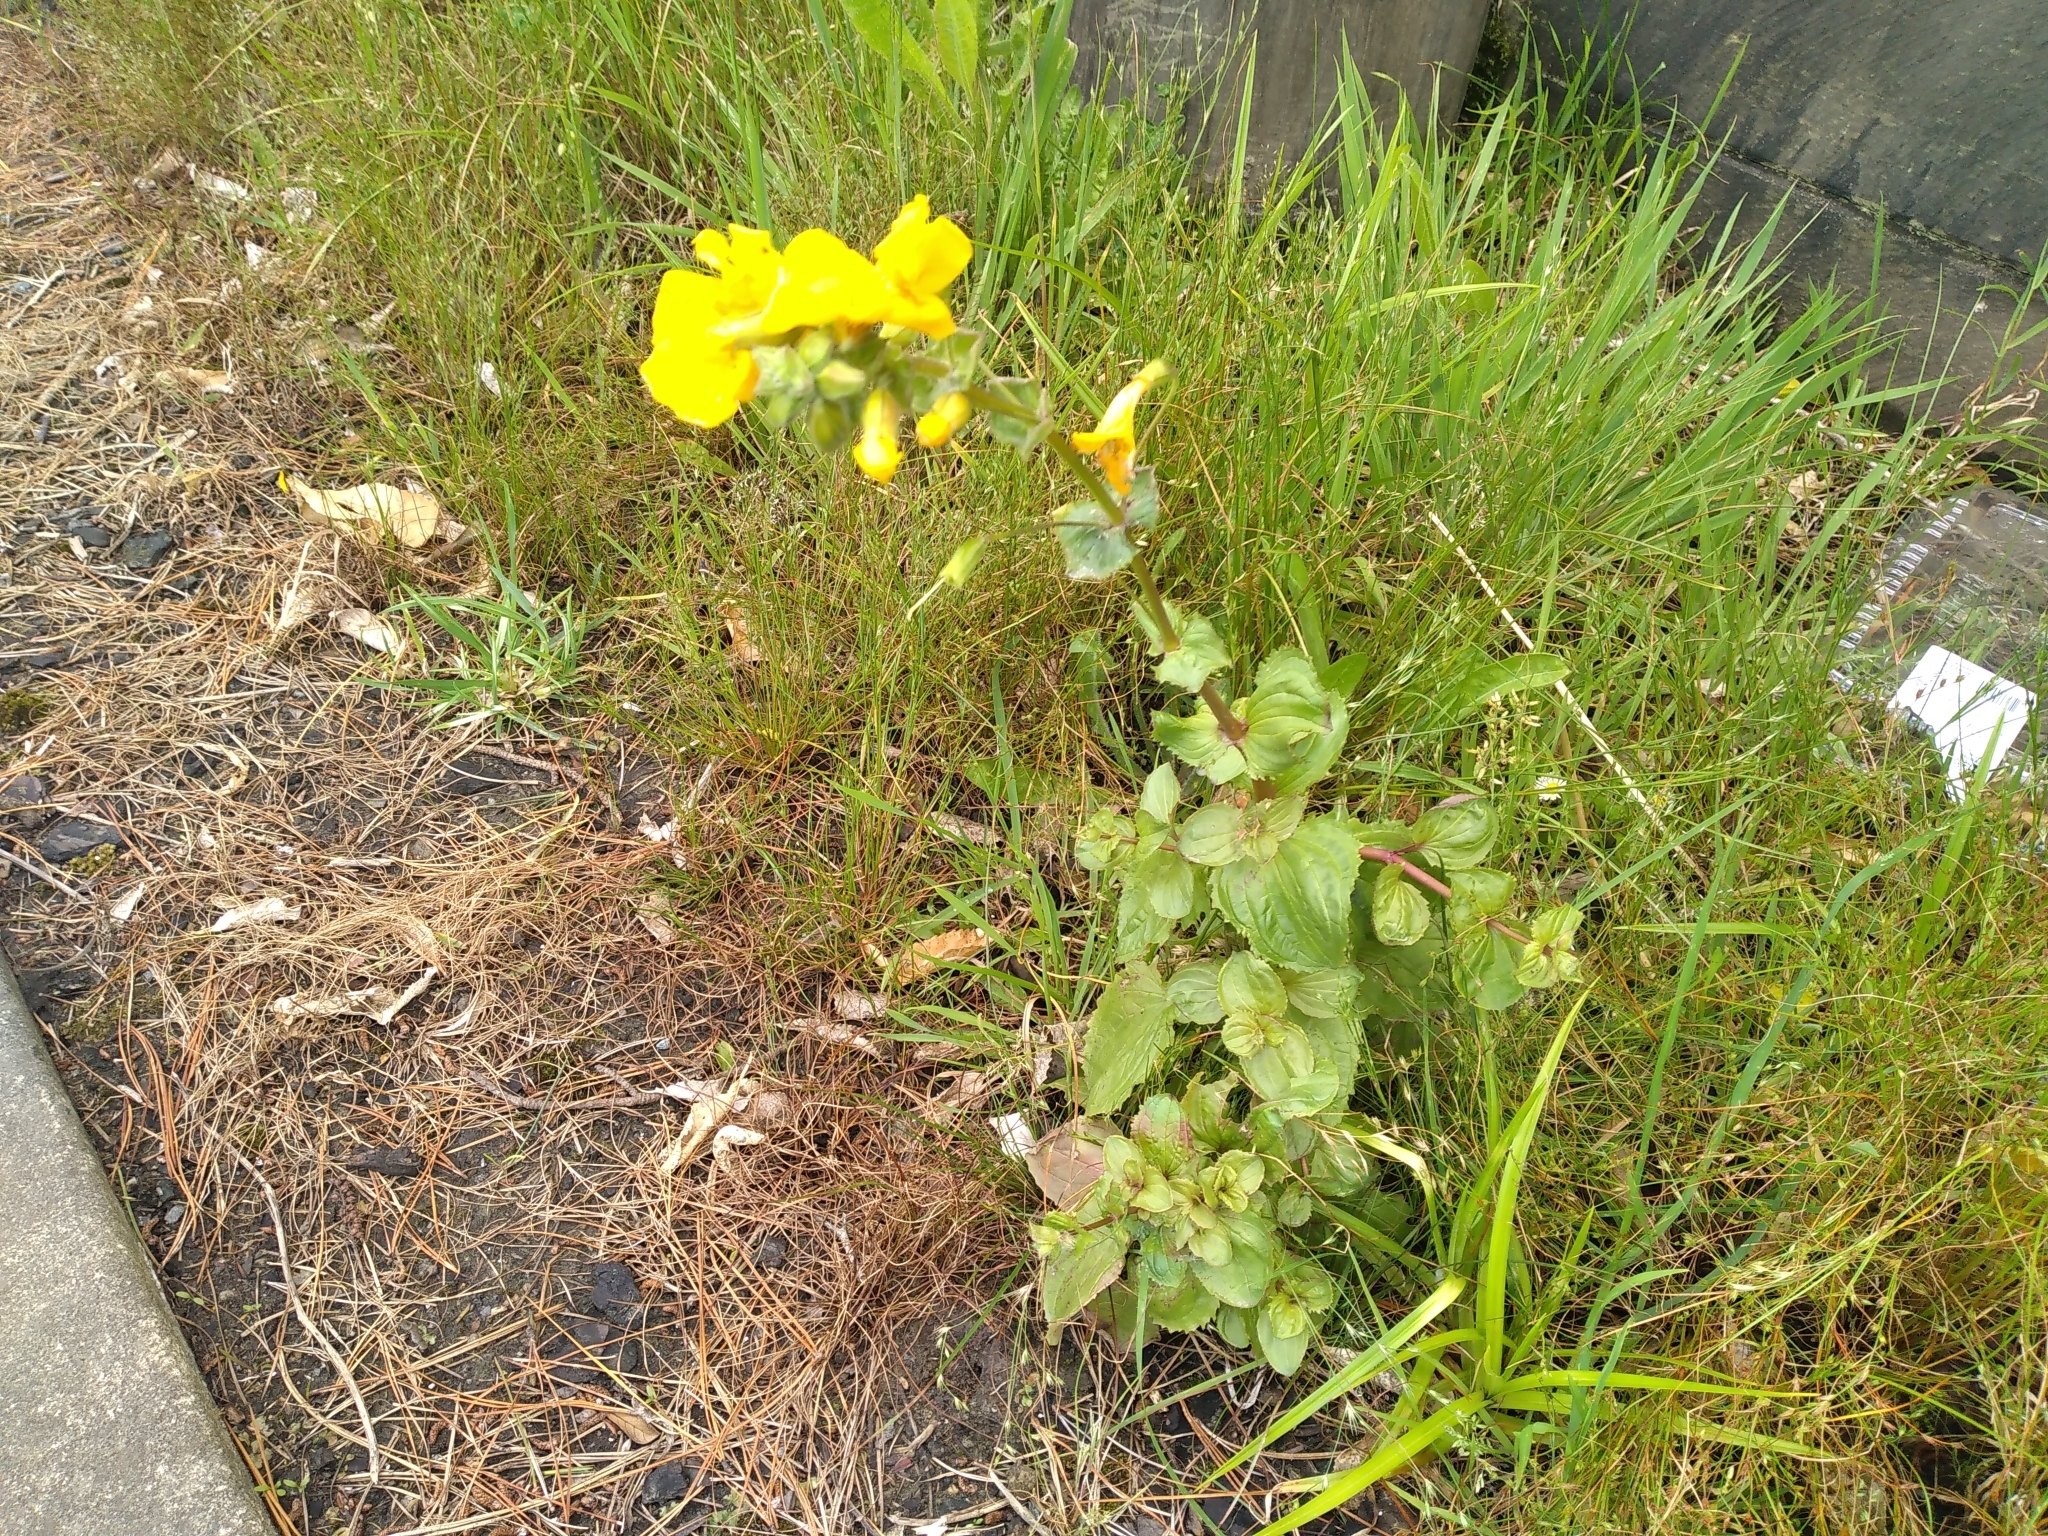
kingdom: Plantae
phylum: Tracheophyta
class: Magnoliopsida
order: Lamiales
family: Phrymaceae
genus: Erythranthe
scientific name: Erythranthe guttata
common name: Monkeyflower
